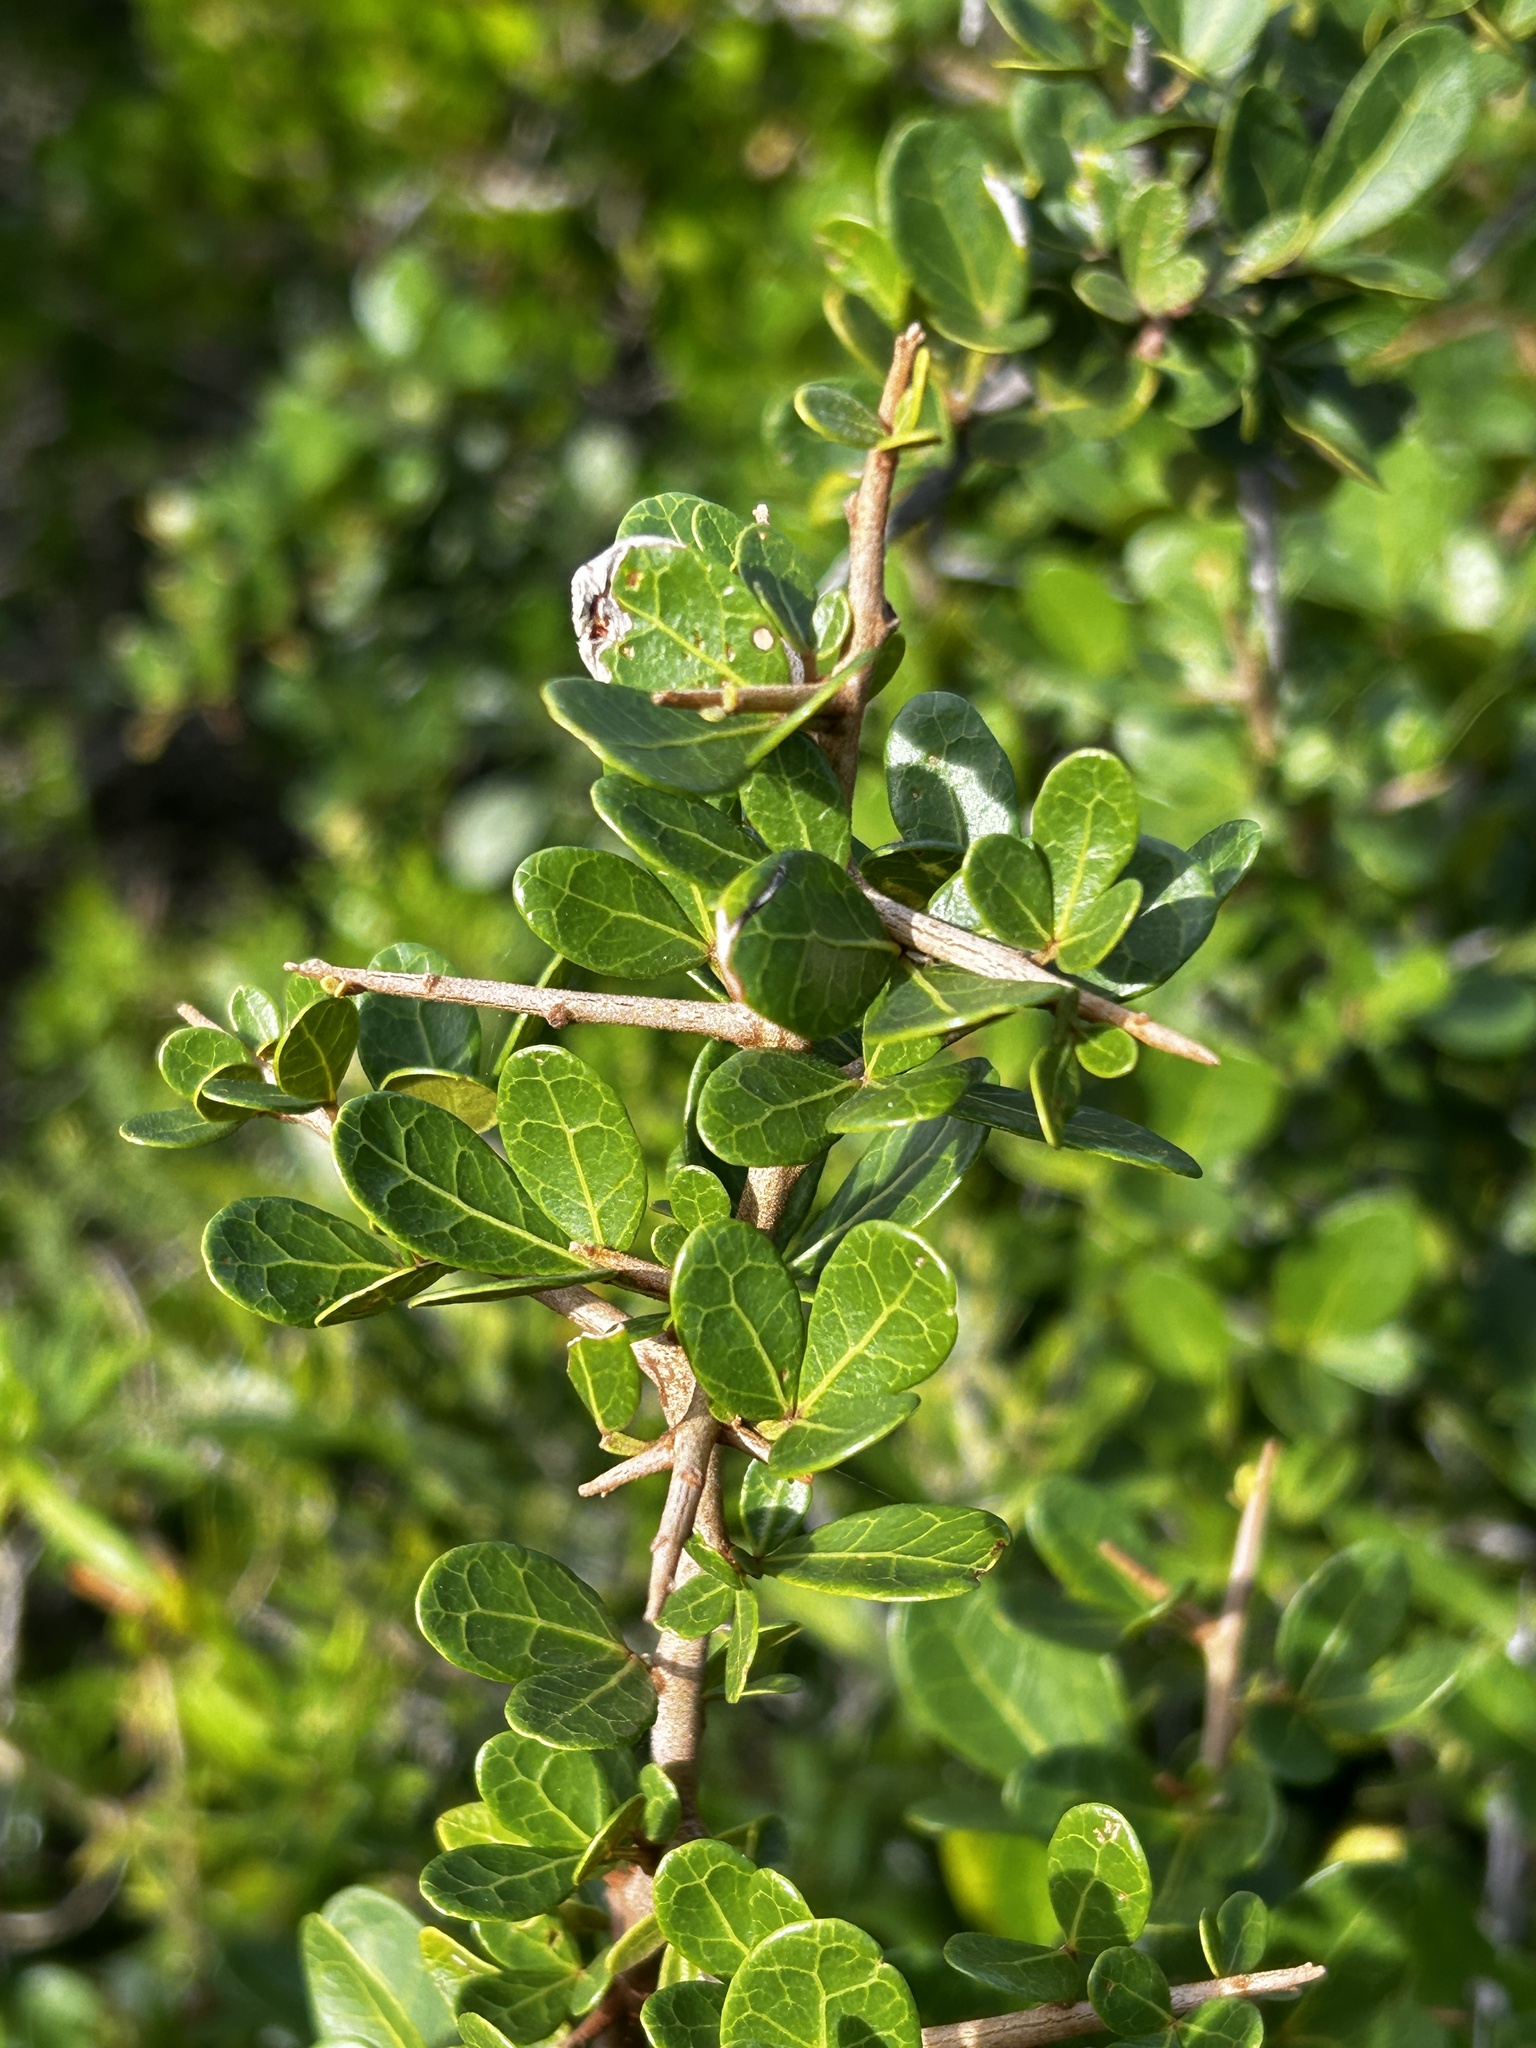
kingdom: Plantae
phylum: Tracheophyta
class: Magnoliopsida
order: Sapindales
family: Anacardiaceae
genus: Searsia
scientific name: Searsia pterota
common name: Winged currant
